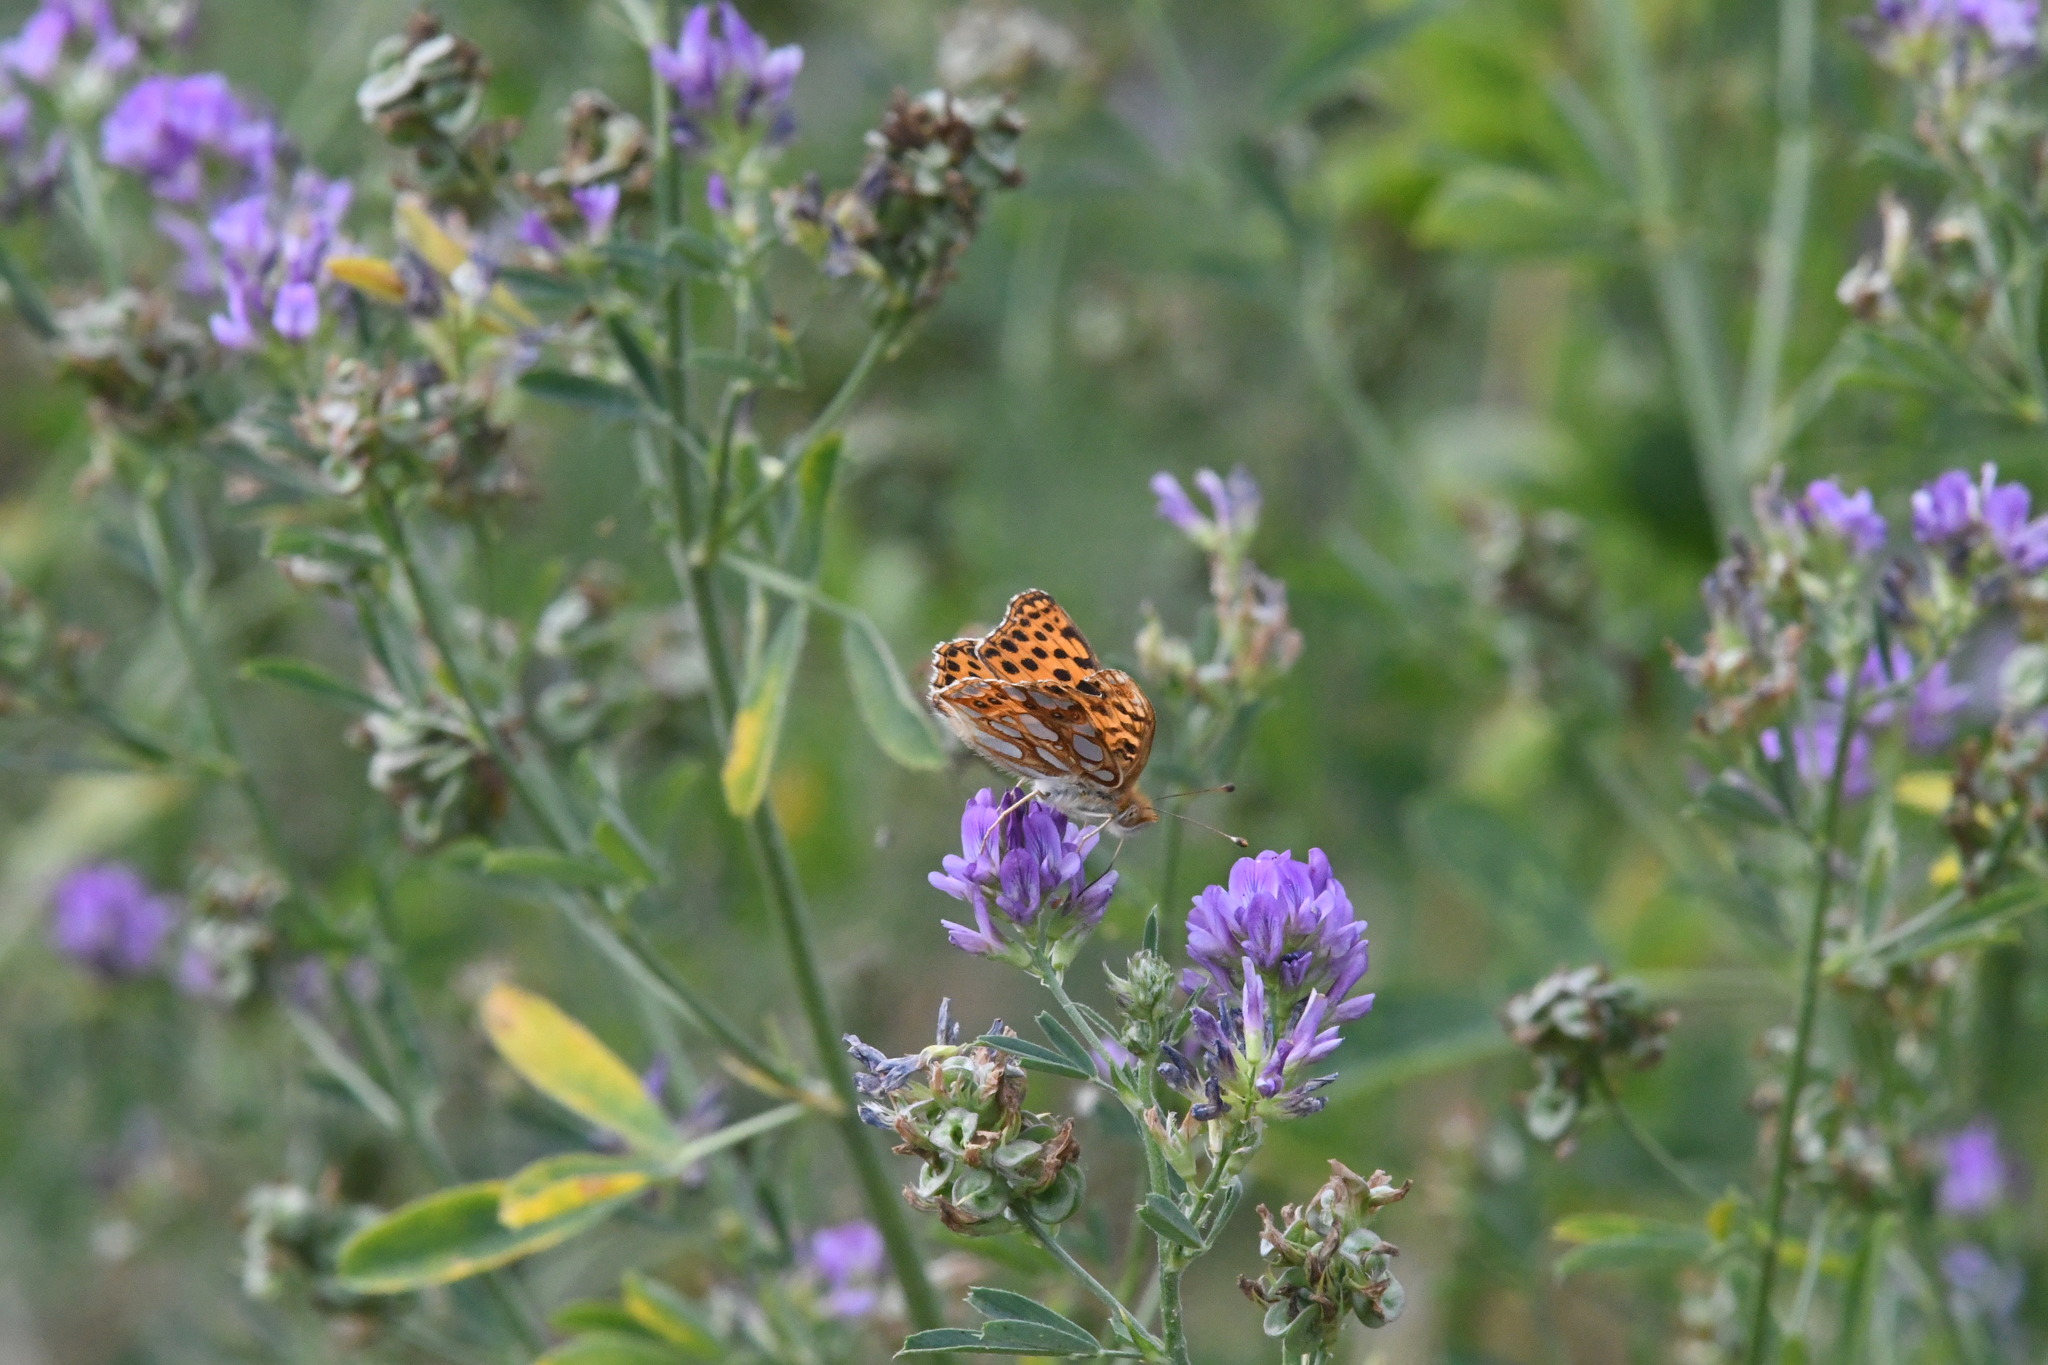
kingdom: Animalia
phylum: Arthropoda
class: Insecta
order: Lepidoptera
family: Nymphalidae
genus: Issoria
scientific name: Issoria lathonia
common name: Queen of spain fritillary
